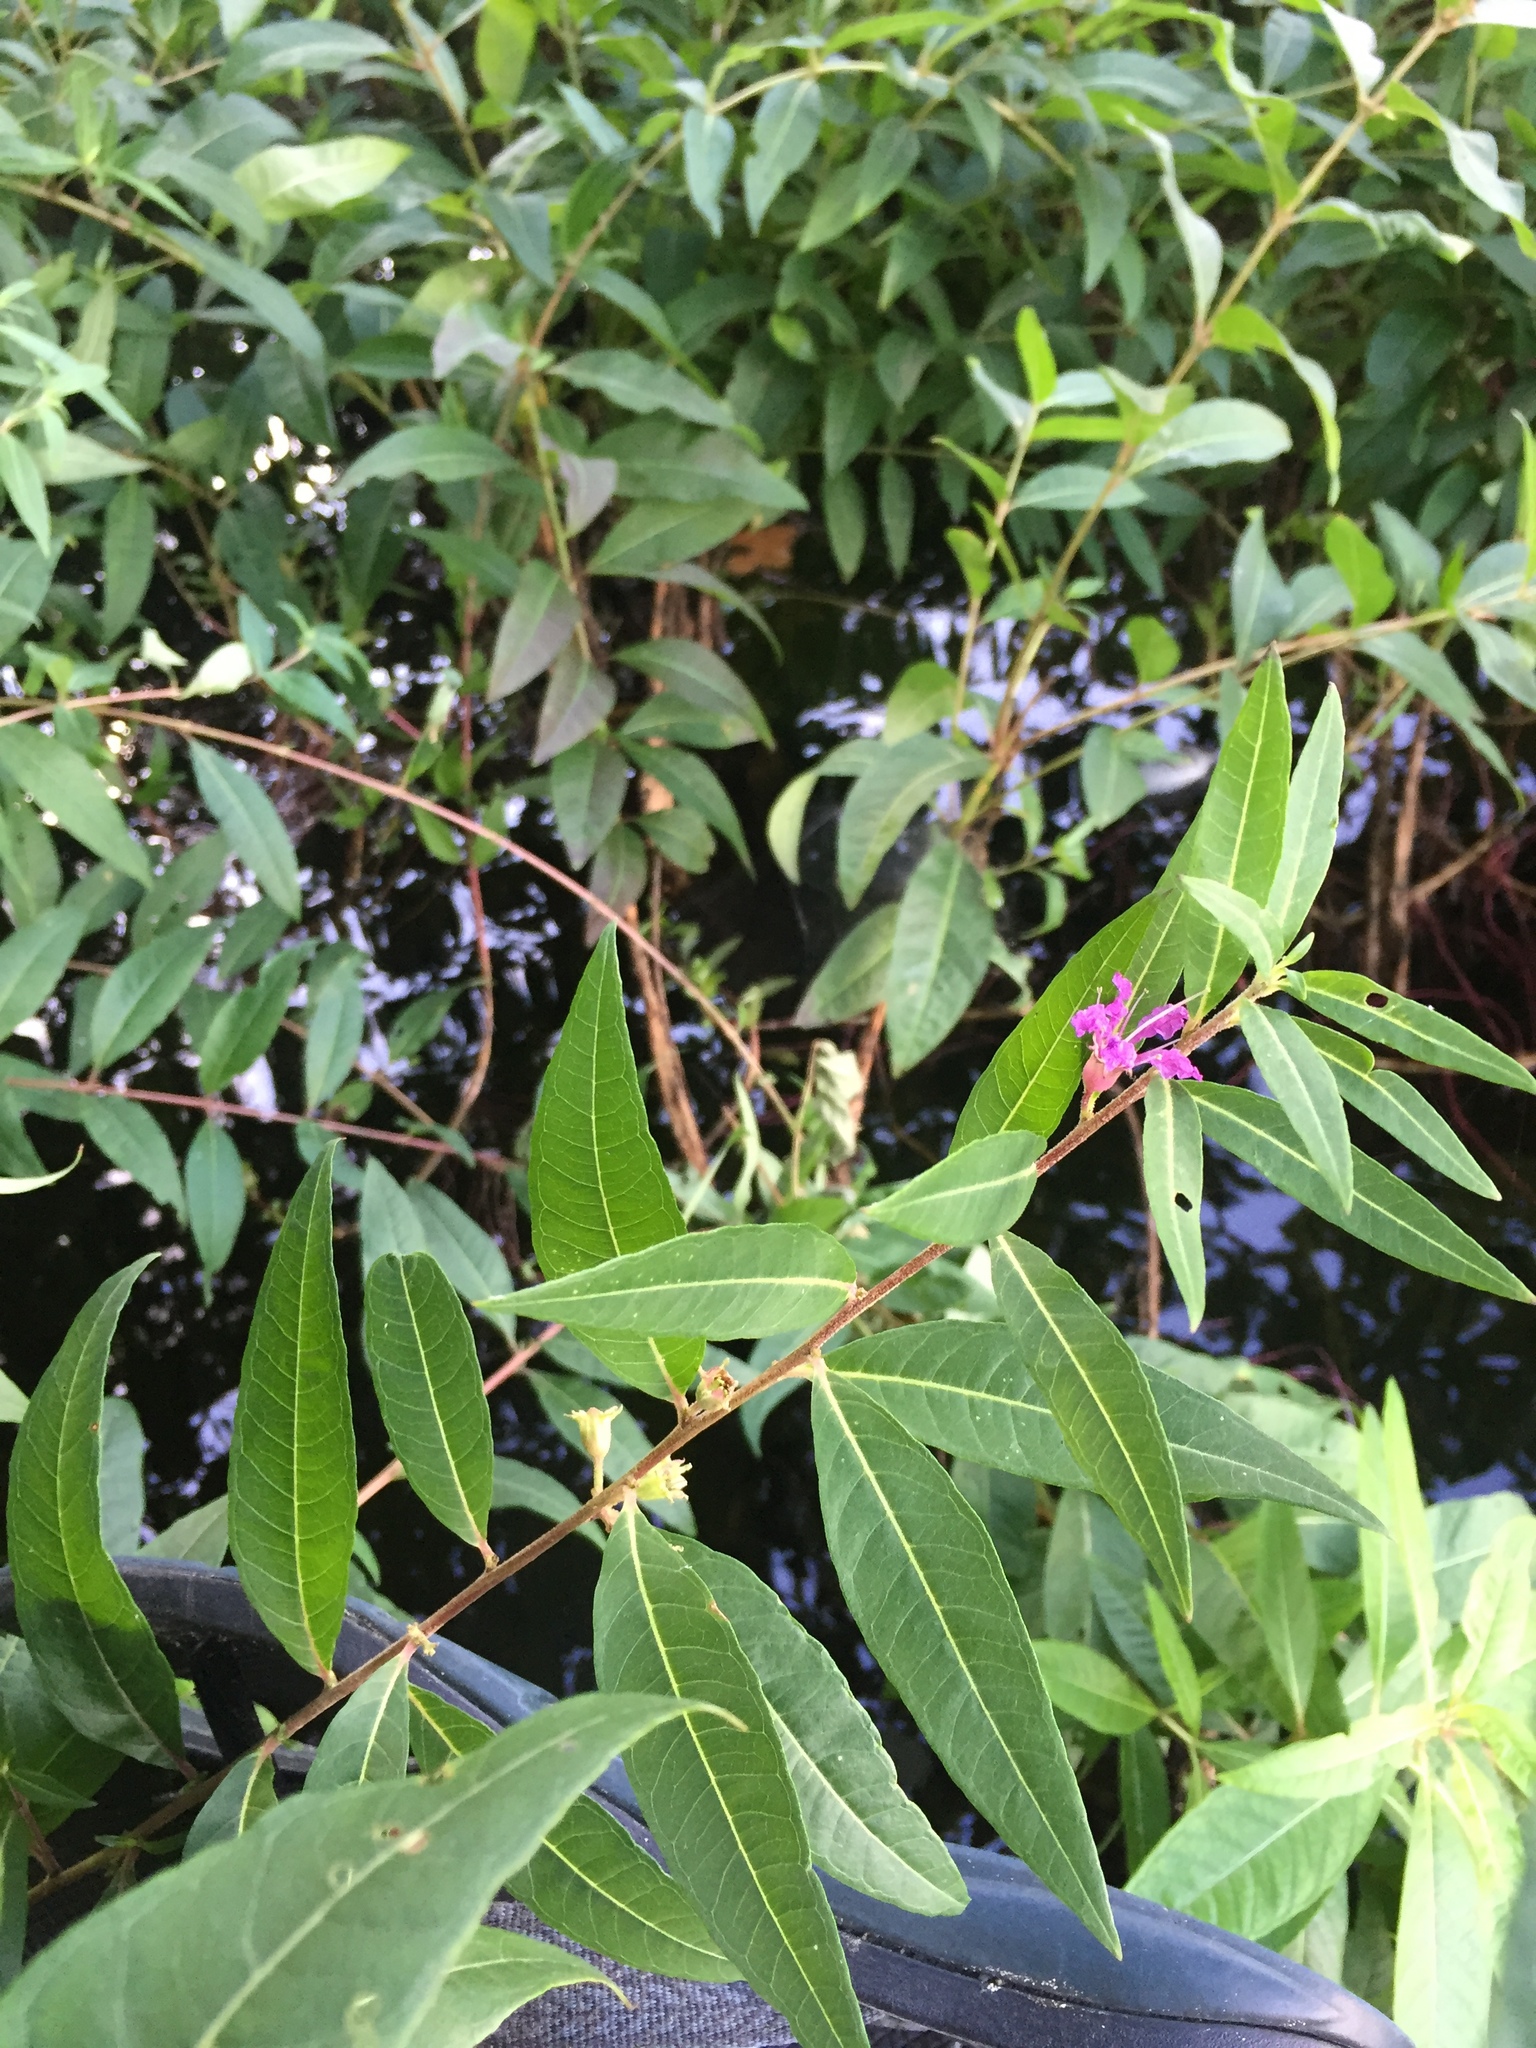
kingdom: Plantae
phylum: Tracheophyta
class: Magnoliopsida
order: Myrtales
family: Lythraceae
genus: Decodon
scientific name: Decodon verticillatus
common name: Hairy swamp loosestrife
